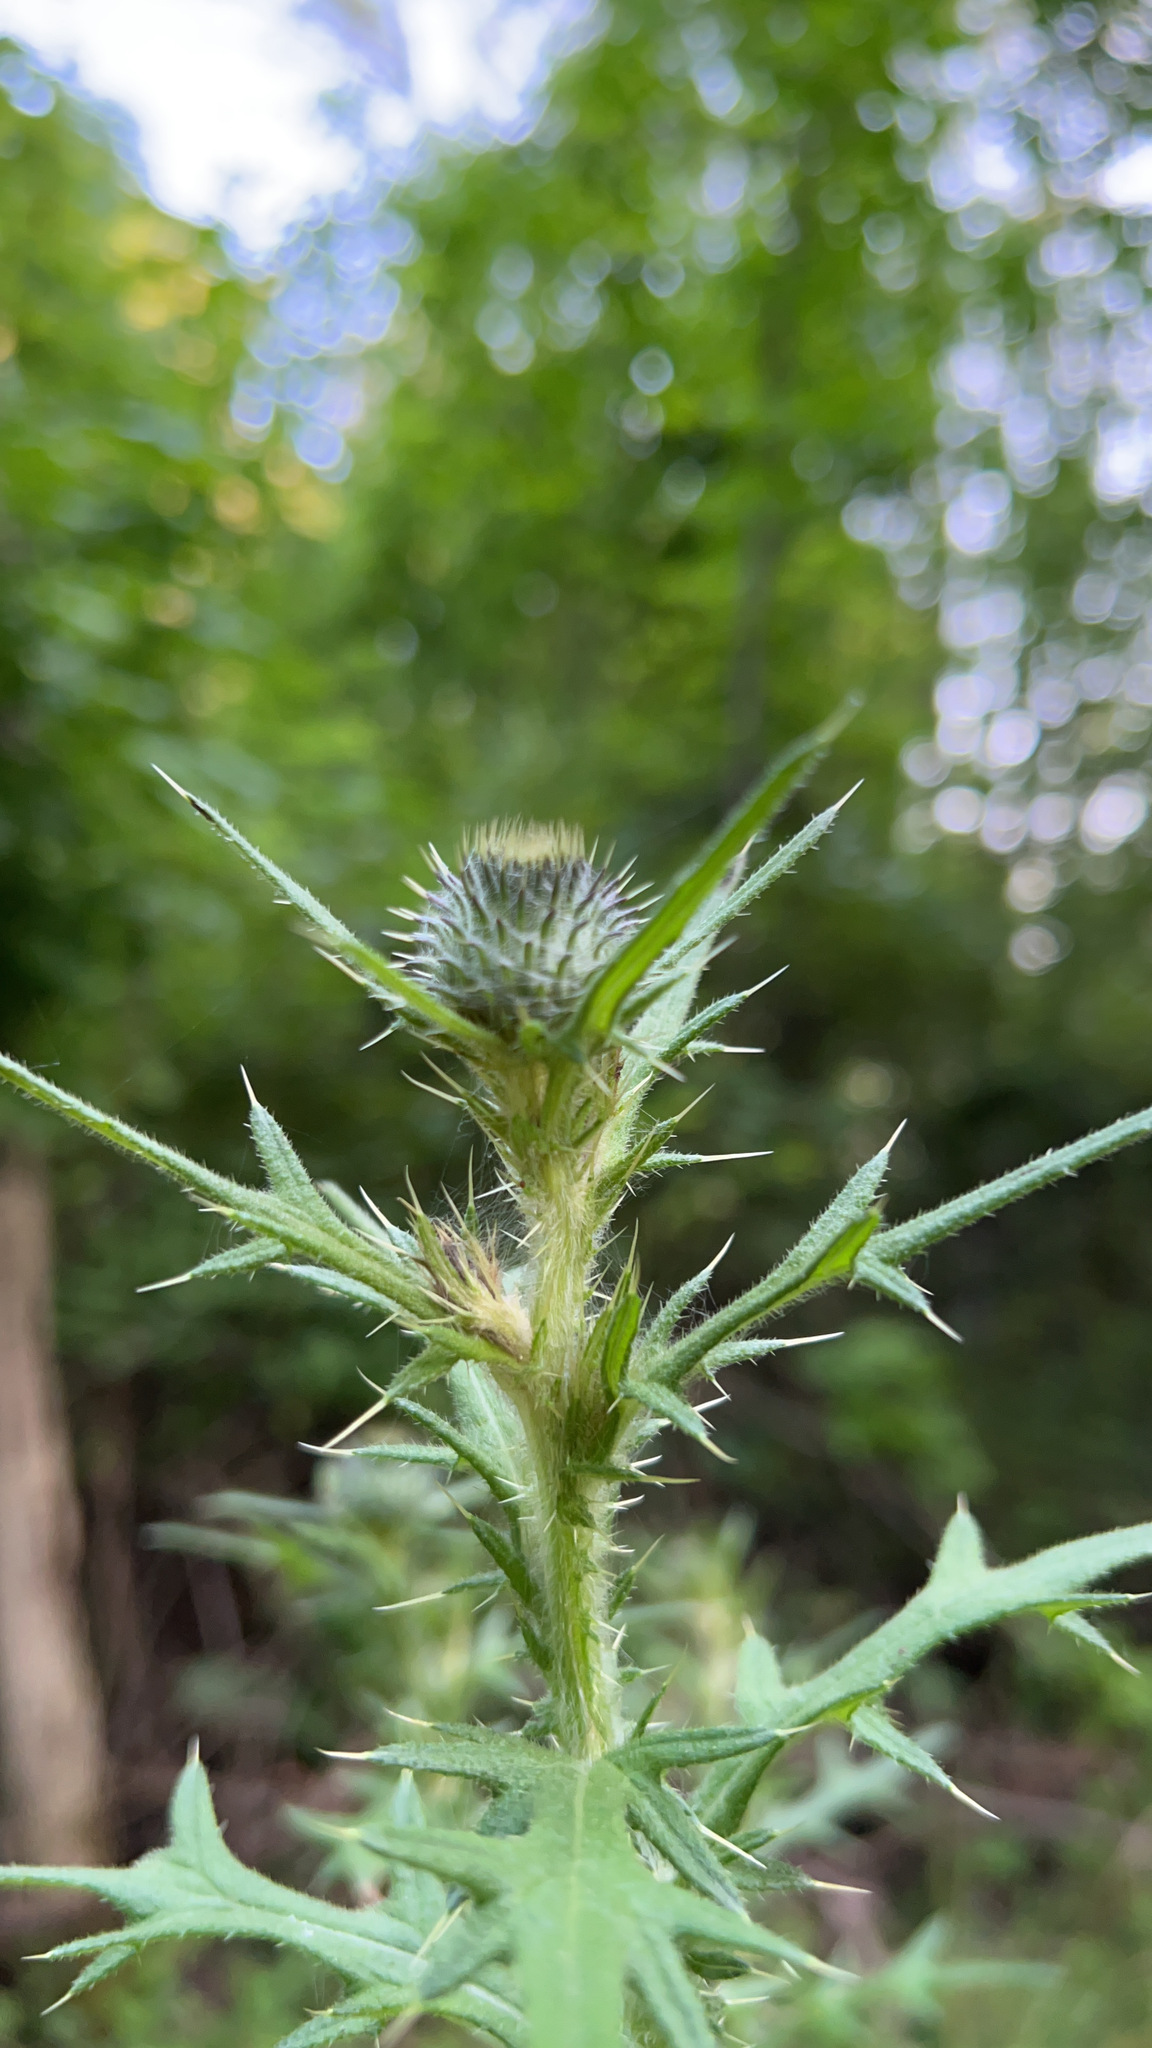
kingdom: Plantae
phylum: Tracheophyta
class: Magnoliopsida
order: Asterales
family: Asteraceae
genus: Cirsium
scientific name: Cirsium vulgare
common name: Bull thistle
